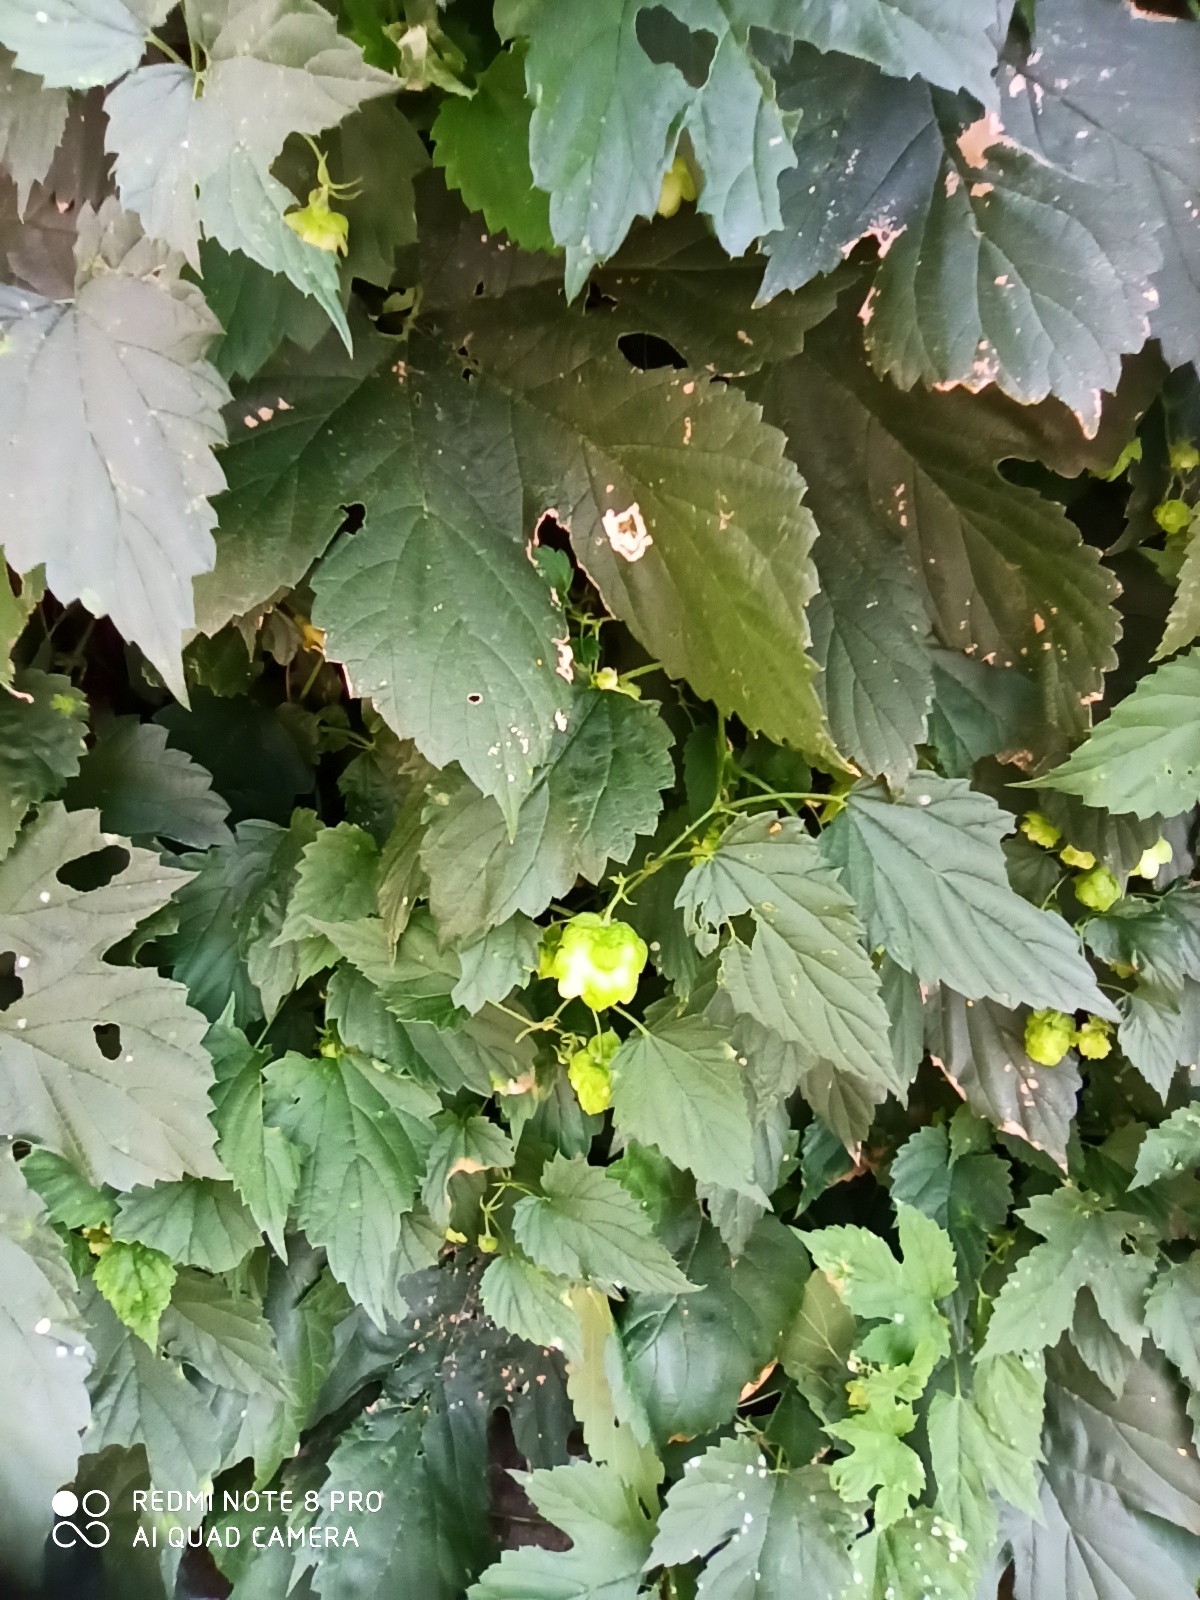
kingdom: Plantae
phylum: Tracheophyta
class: Magnoliopsida
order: Rosales
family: Cannabaceae
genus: Humulus
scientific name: Humulus lupulus
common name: Hop
